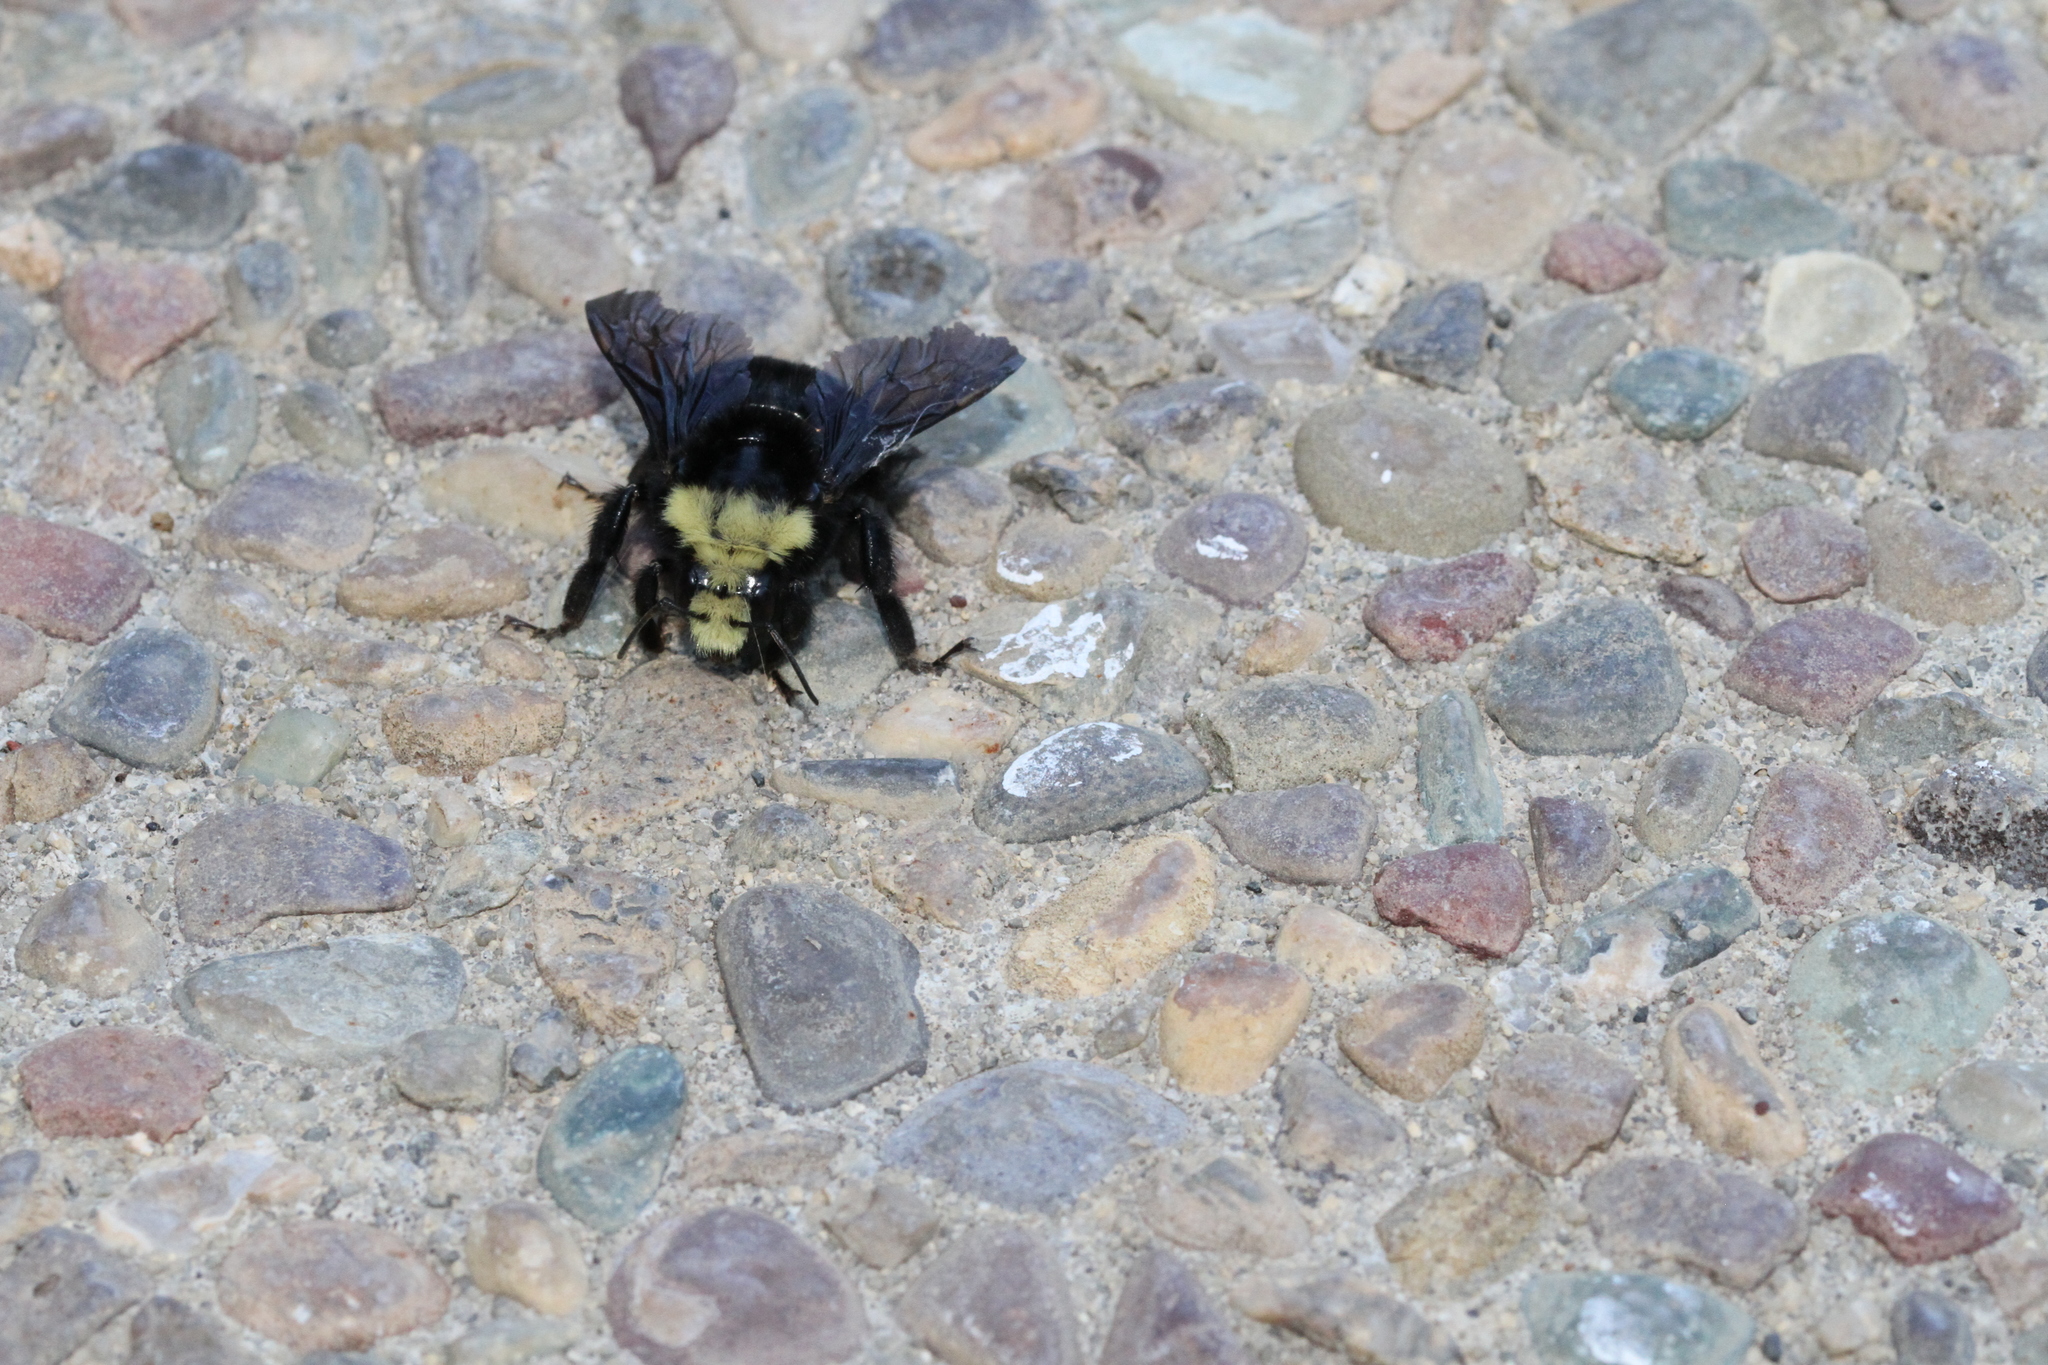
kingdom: Animalia
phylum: Arthropoda
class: Insecta
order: Hymenoptera
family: Apidae
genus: Bombus
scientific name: Bombus vosnesenskii
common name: Vosnesensky bumble bee
